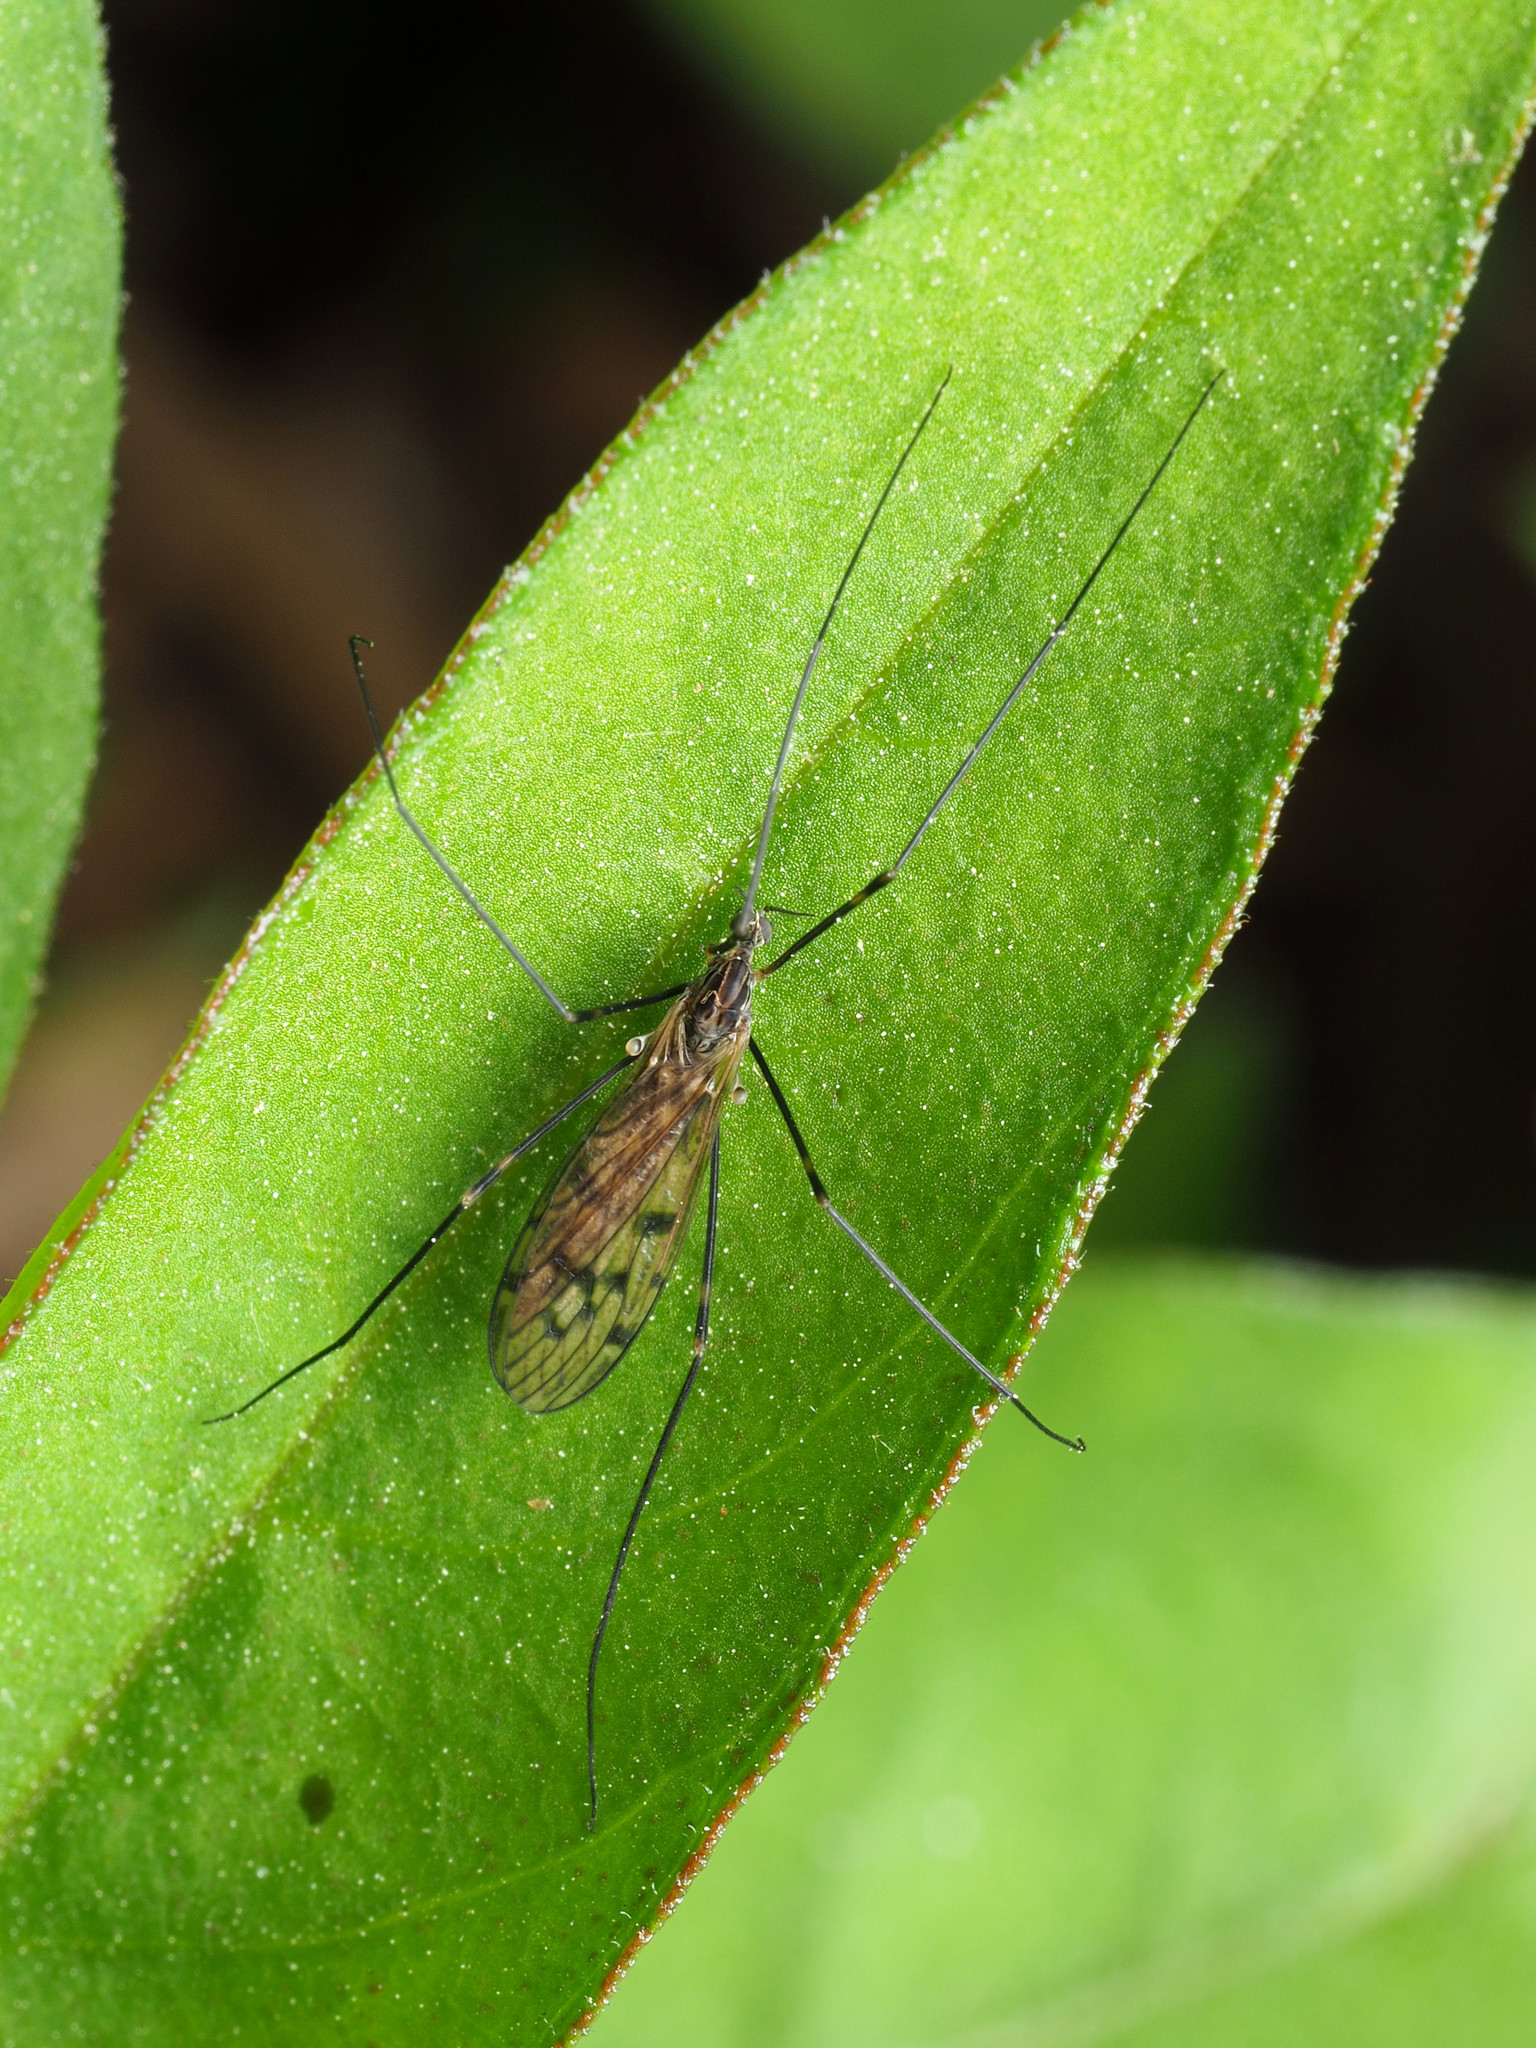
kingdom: Animalia
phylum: Arthropoda
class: Insecta
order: Diptera
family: Limoniidae
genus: Metalimnobia
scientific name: Metalimnobia novaeangliae
